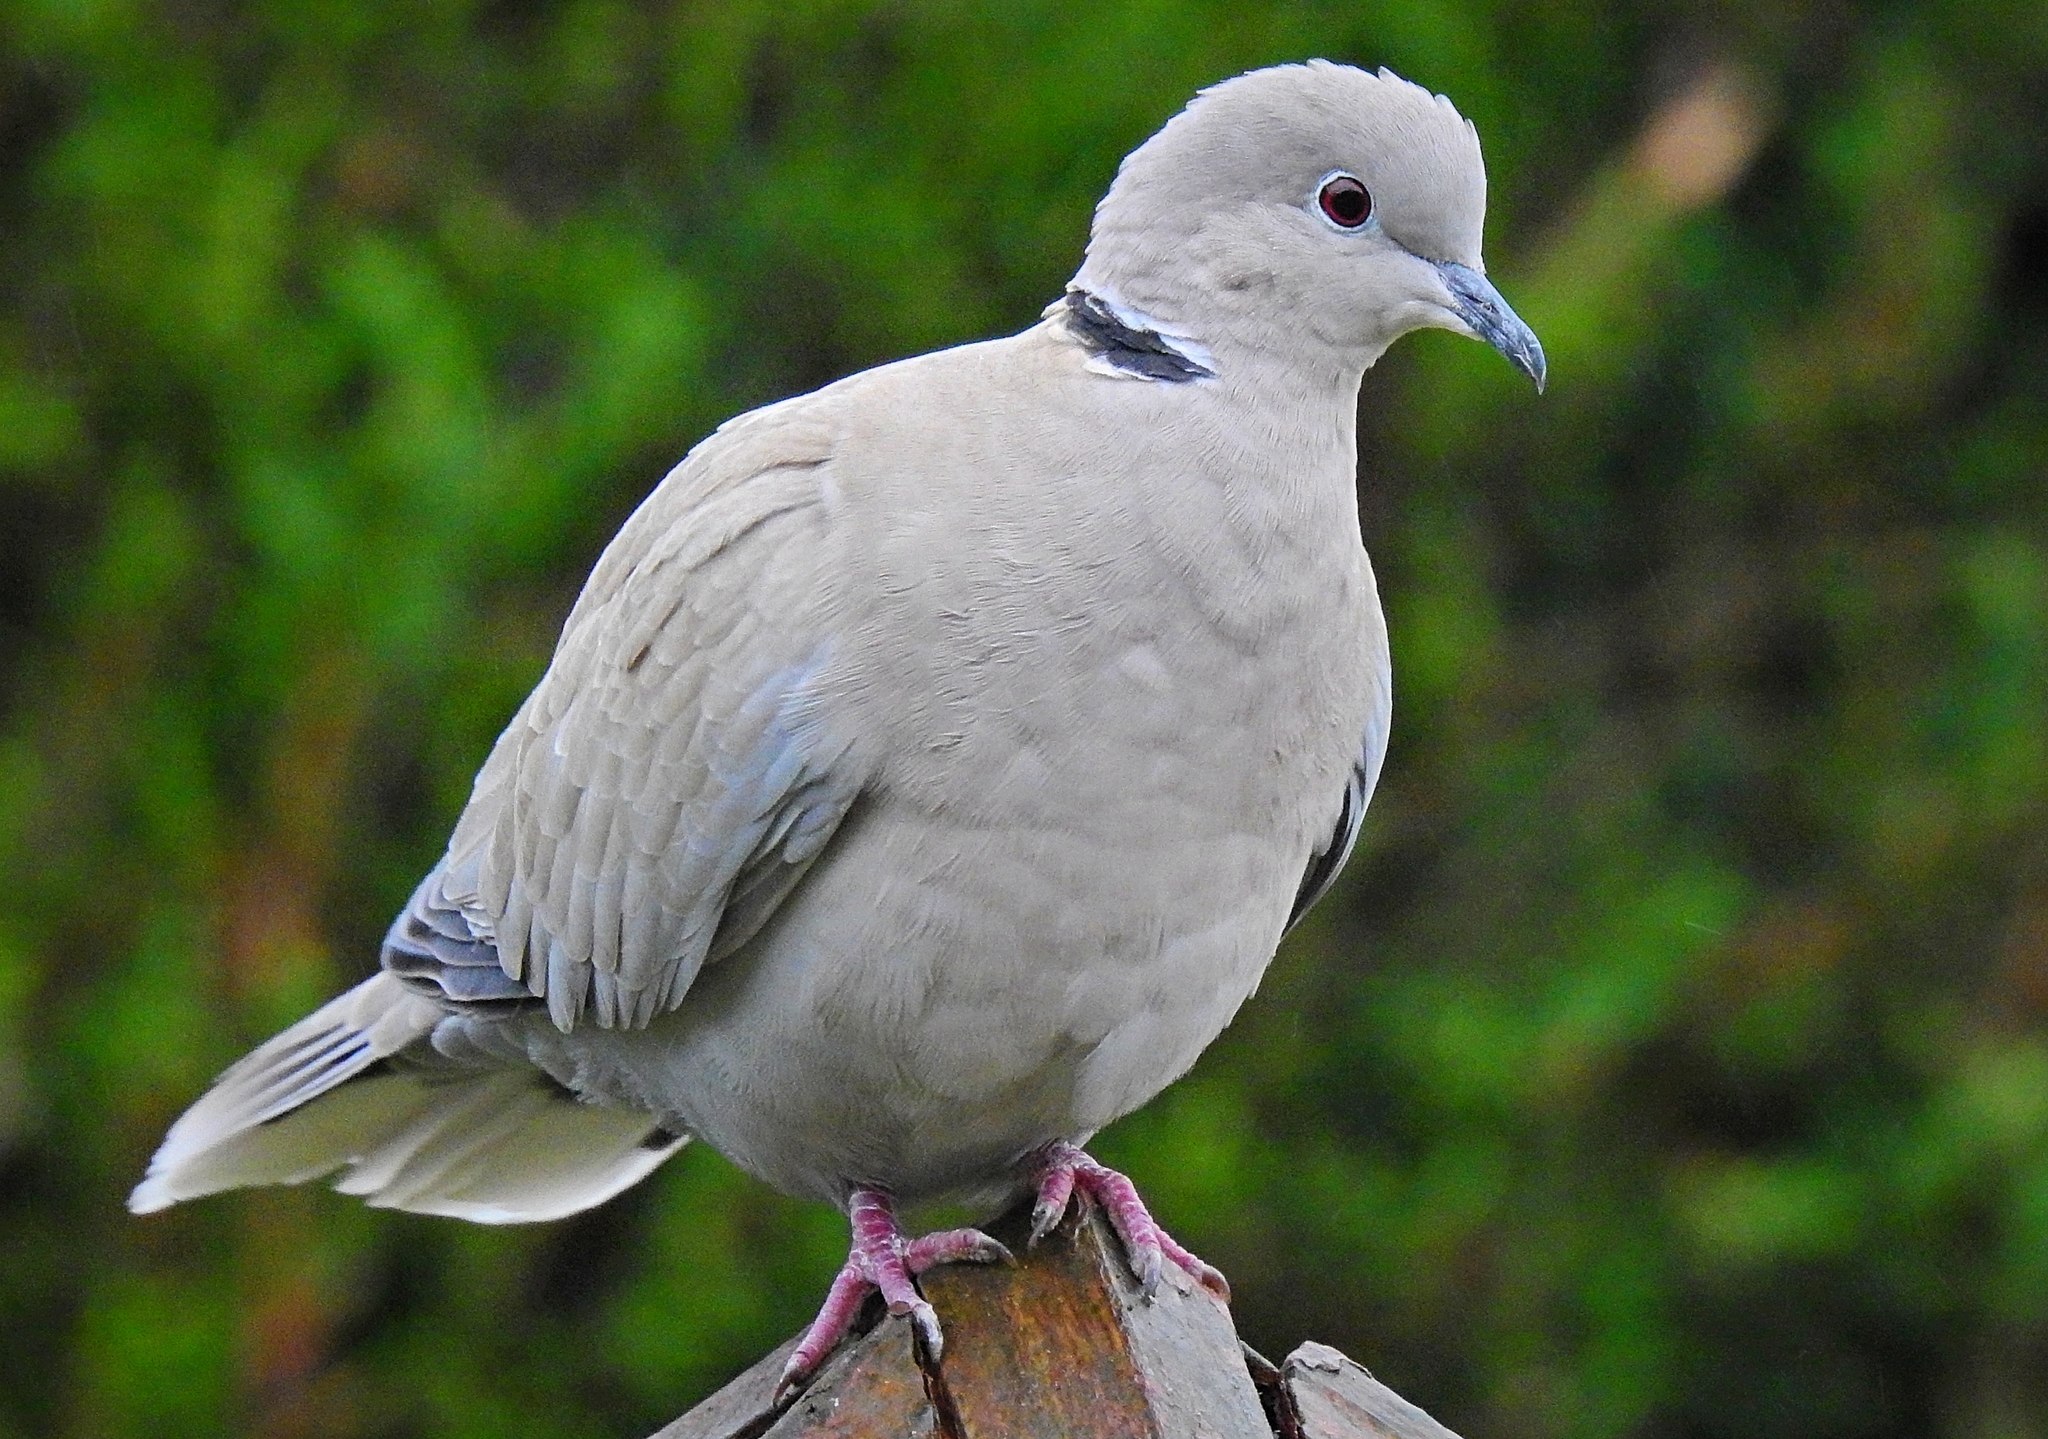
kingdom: Animalia
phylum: Chordata
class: Aves
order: Columbiformes
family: Columbidae
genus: Streptopelia
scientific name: Streptopelia decaocto
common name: Eurasian collared dove
